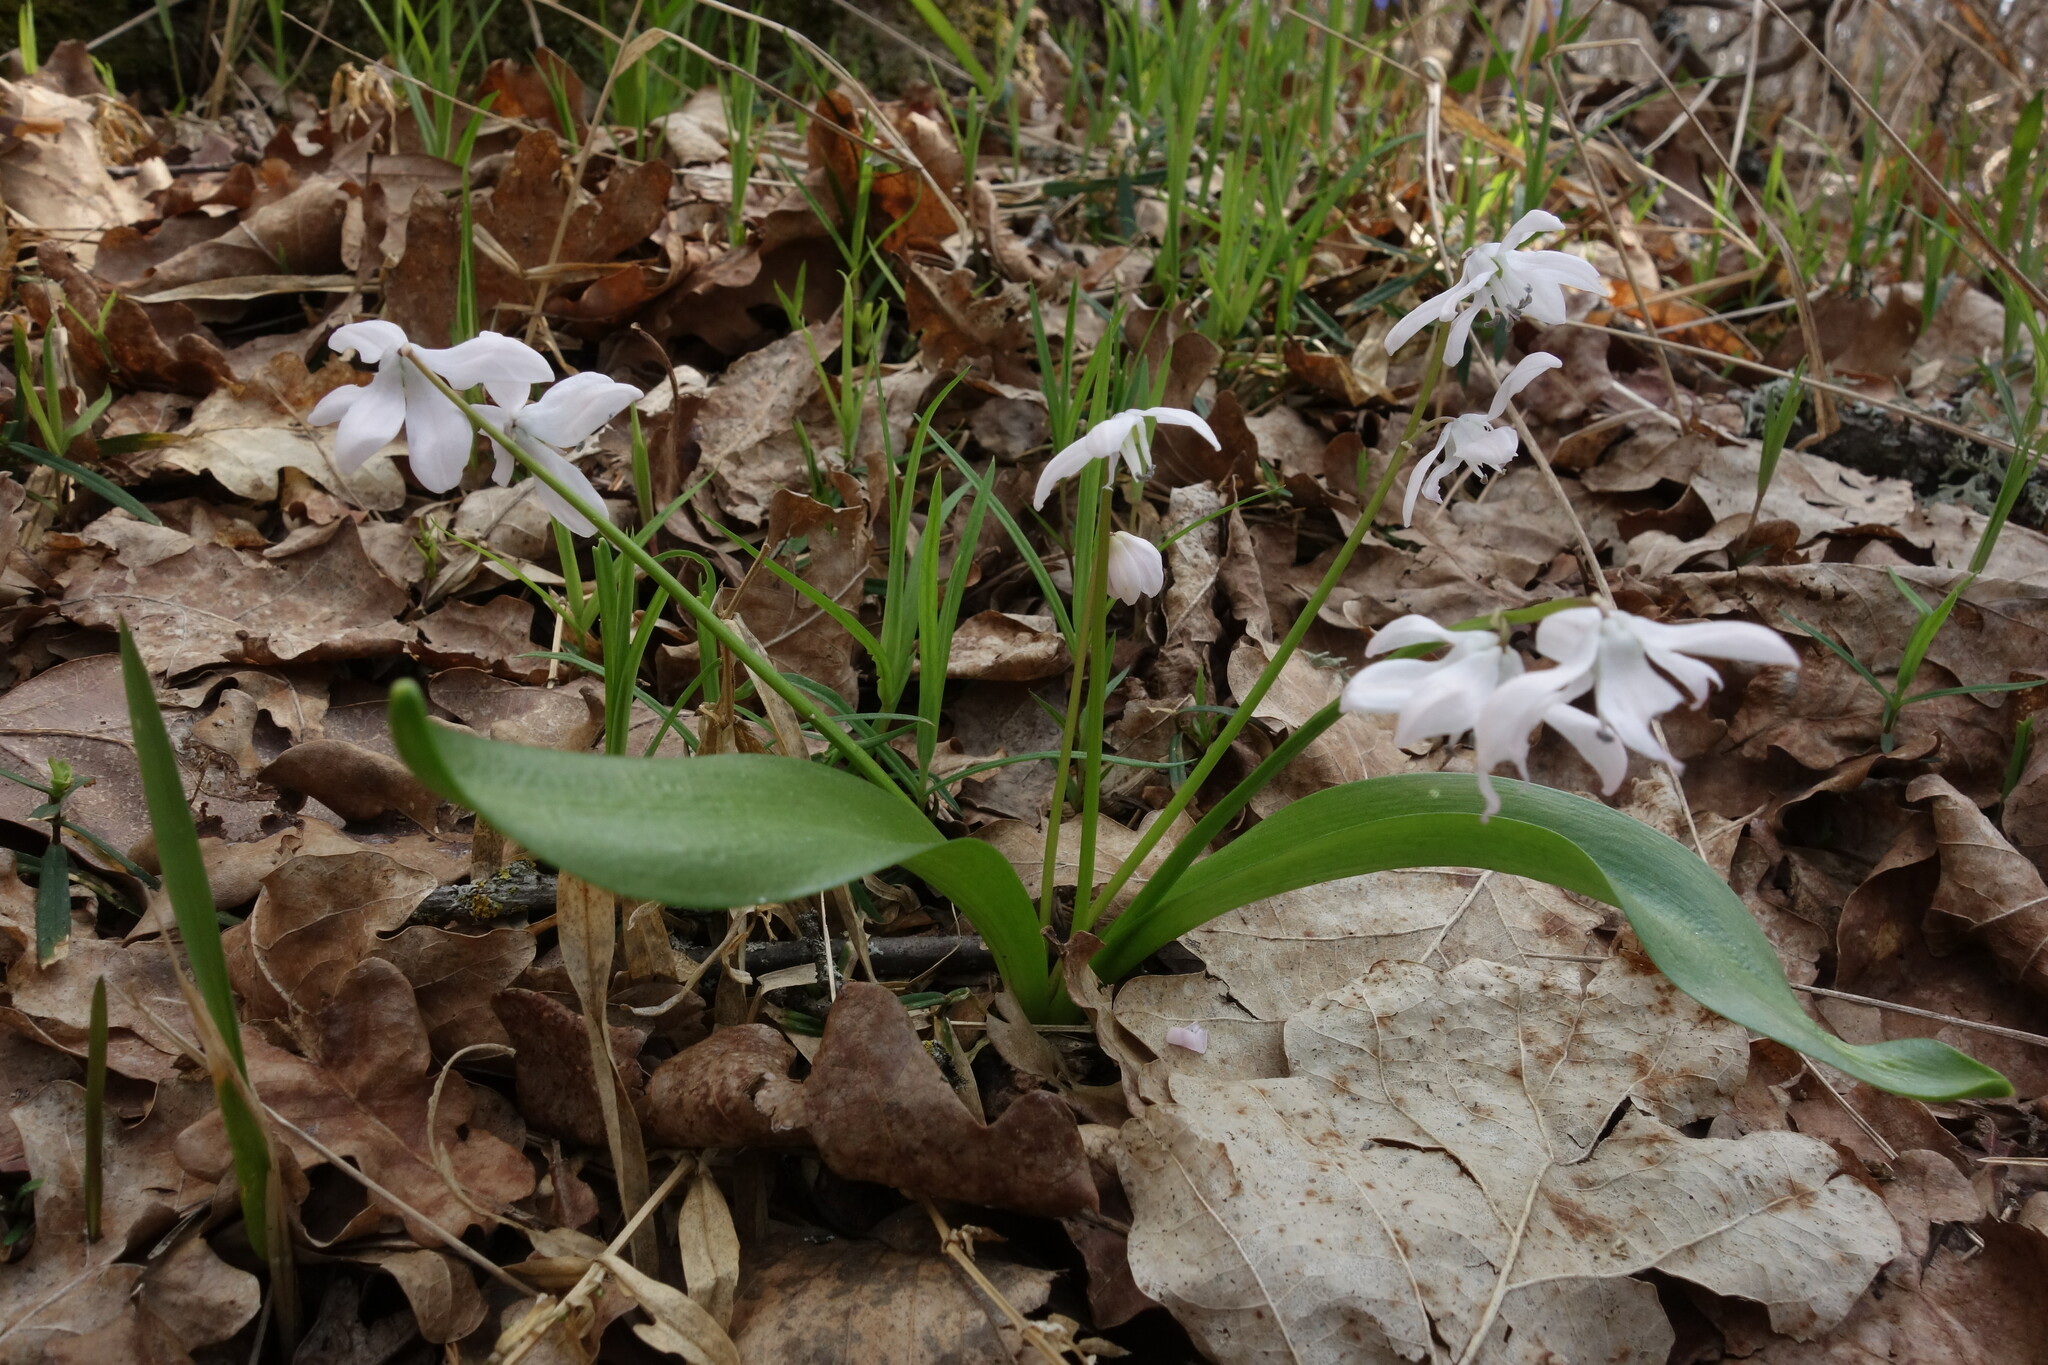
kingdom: Plantae
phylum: Tracheophyta
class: Liliopsida
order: Asparagales
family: Asparagaceae
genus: Scilla
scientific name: Scilla siberica
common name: Siberian squill
